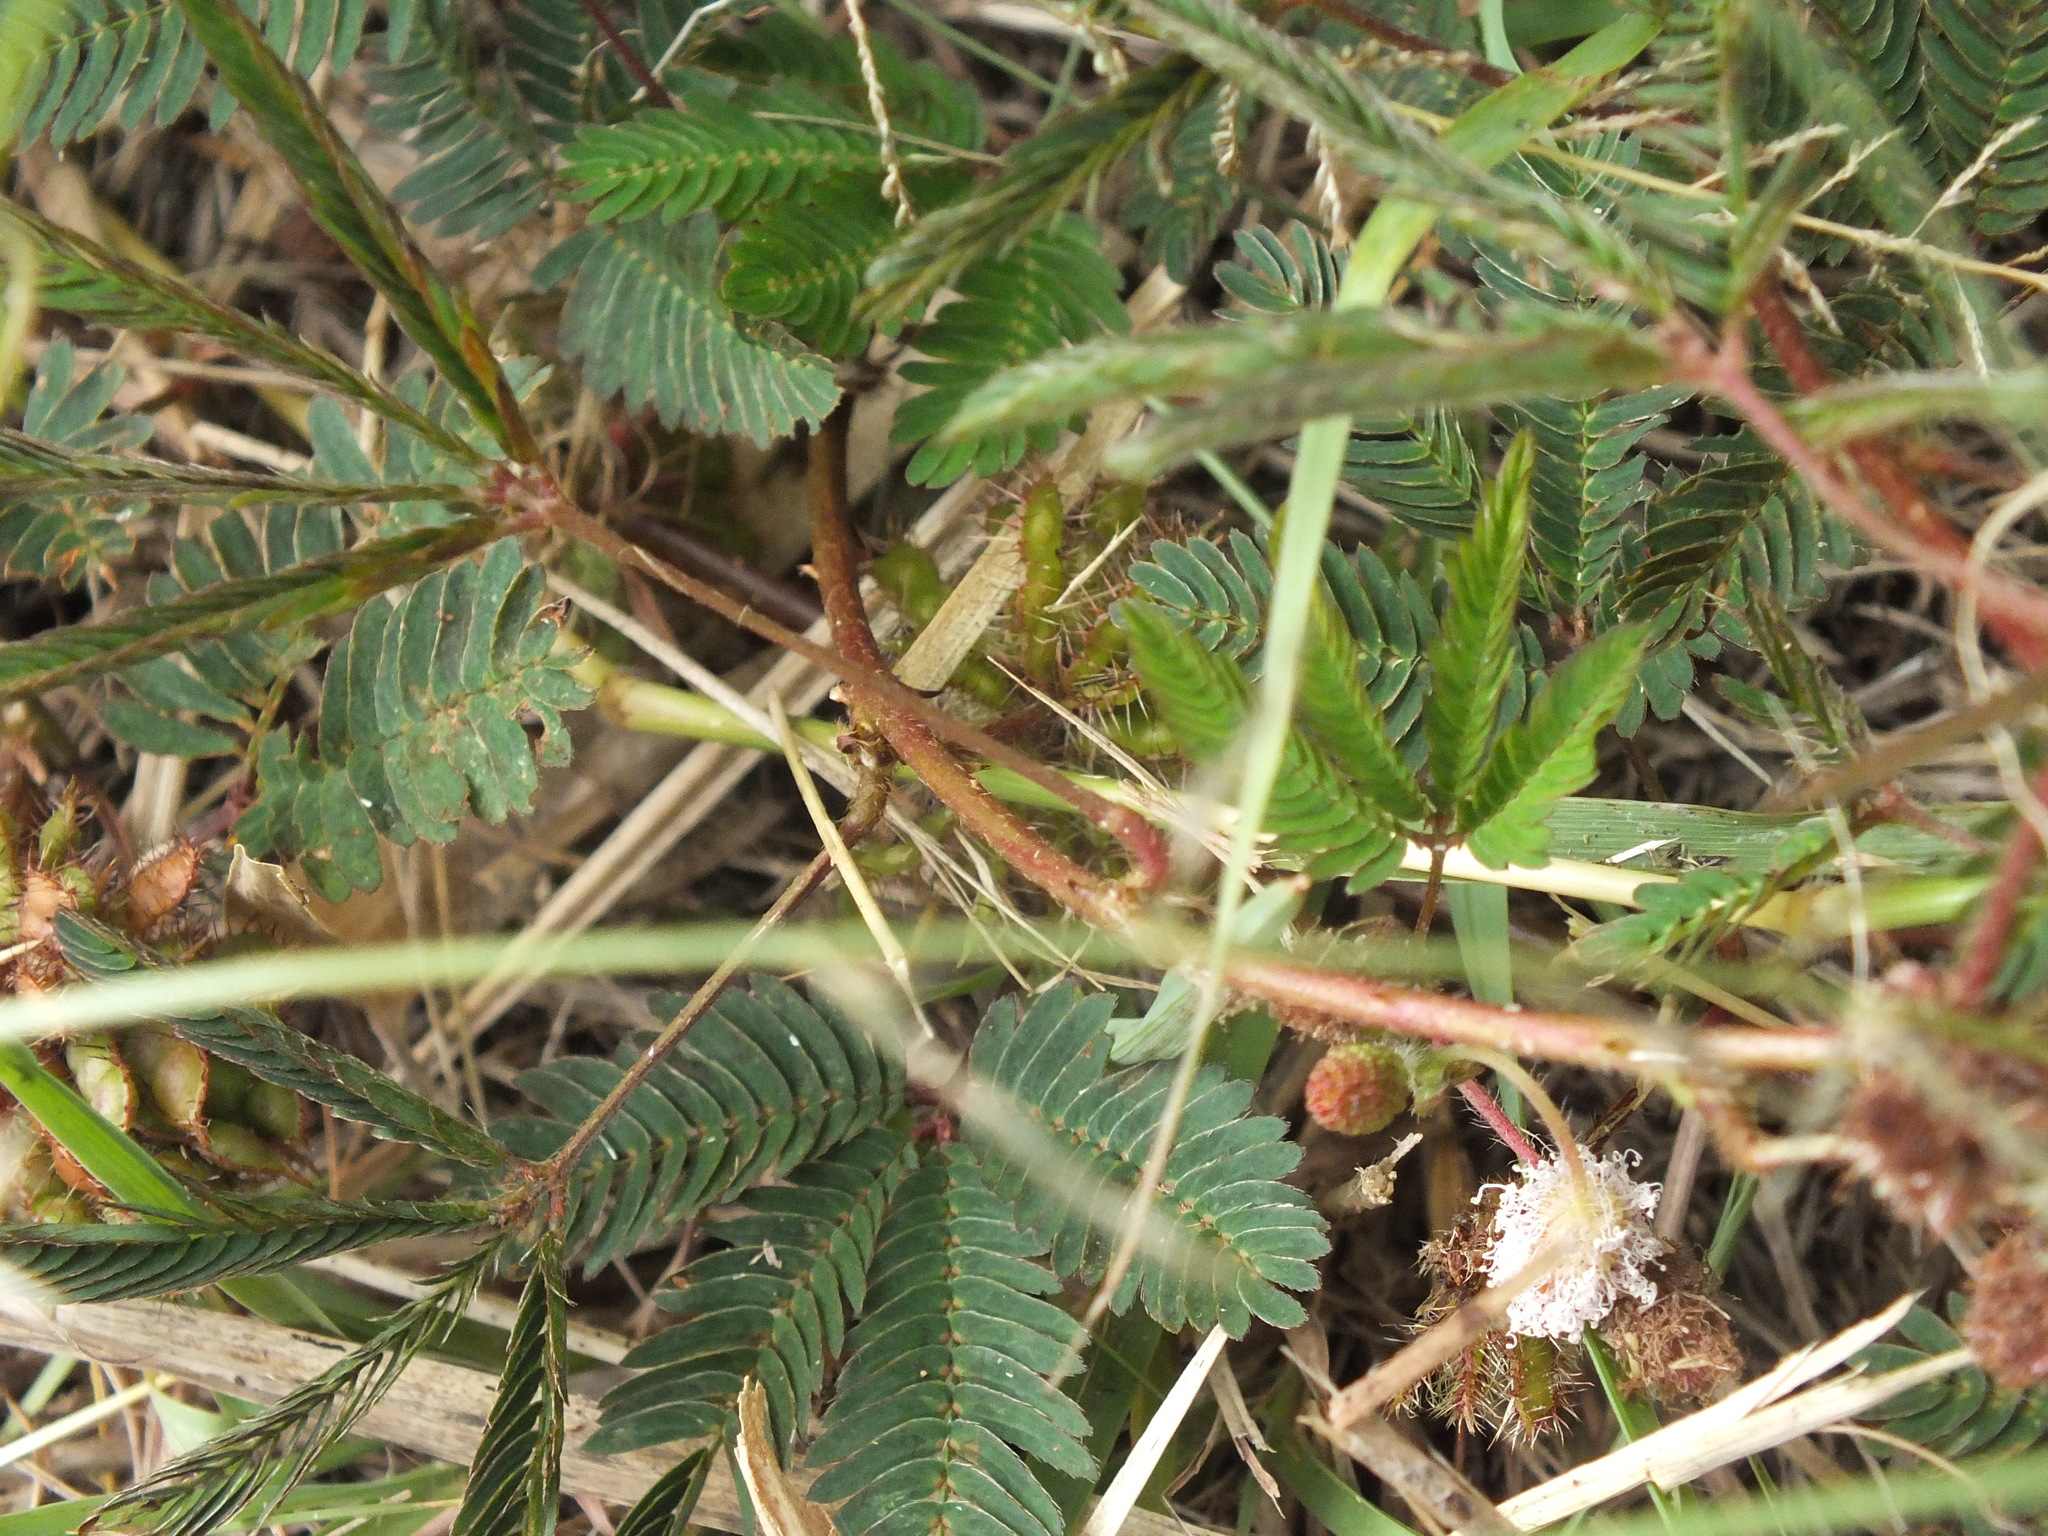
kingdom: Plantae
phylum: Tracheophyta
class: Magnoliopsida
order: Fabales
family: Fabaceae
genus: Mimosa
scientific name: Mimosa pudica
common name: Sensitive plant
